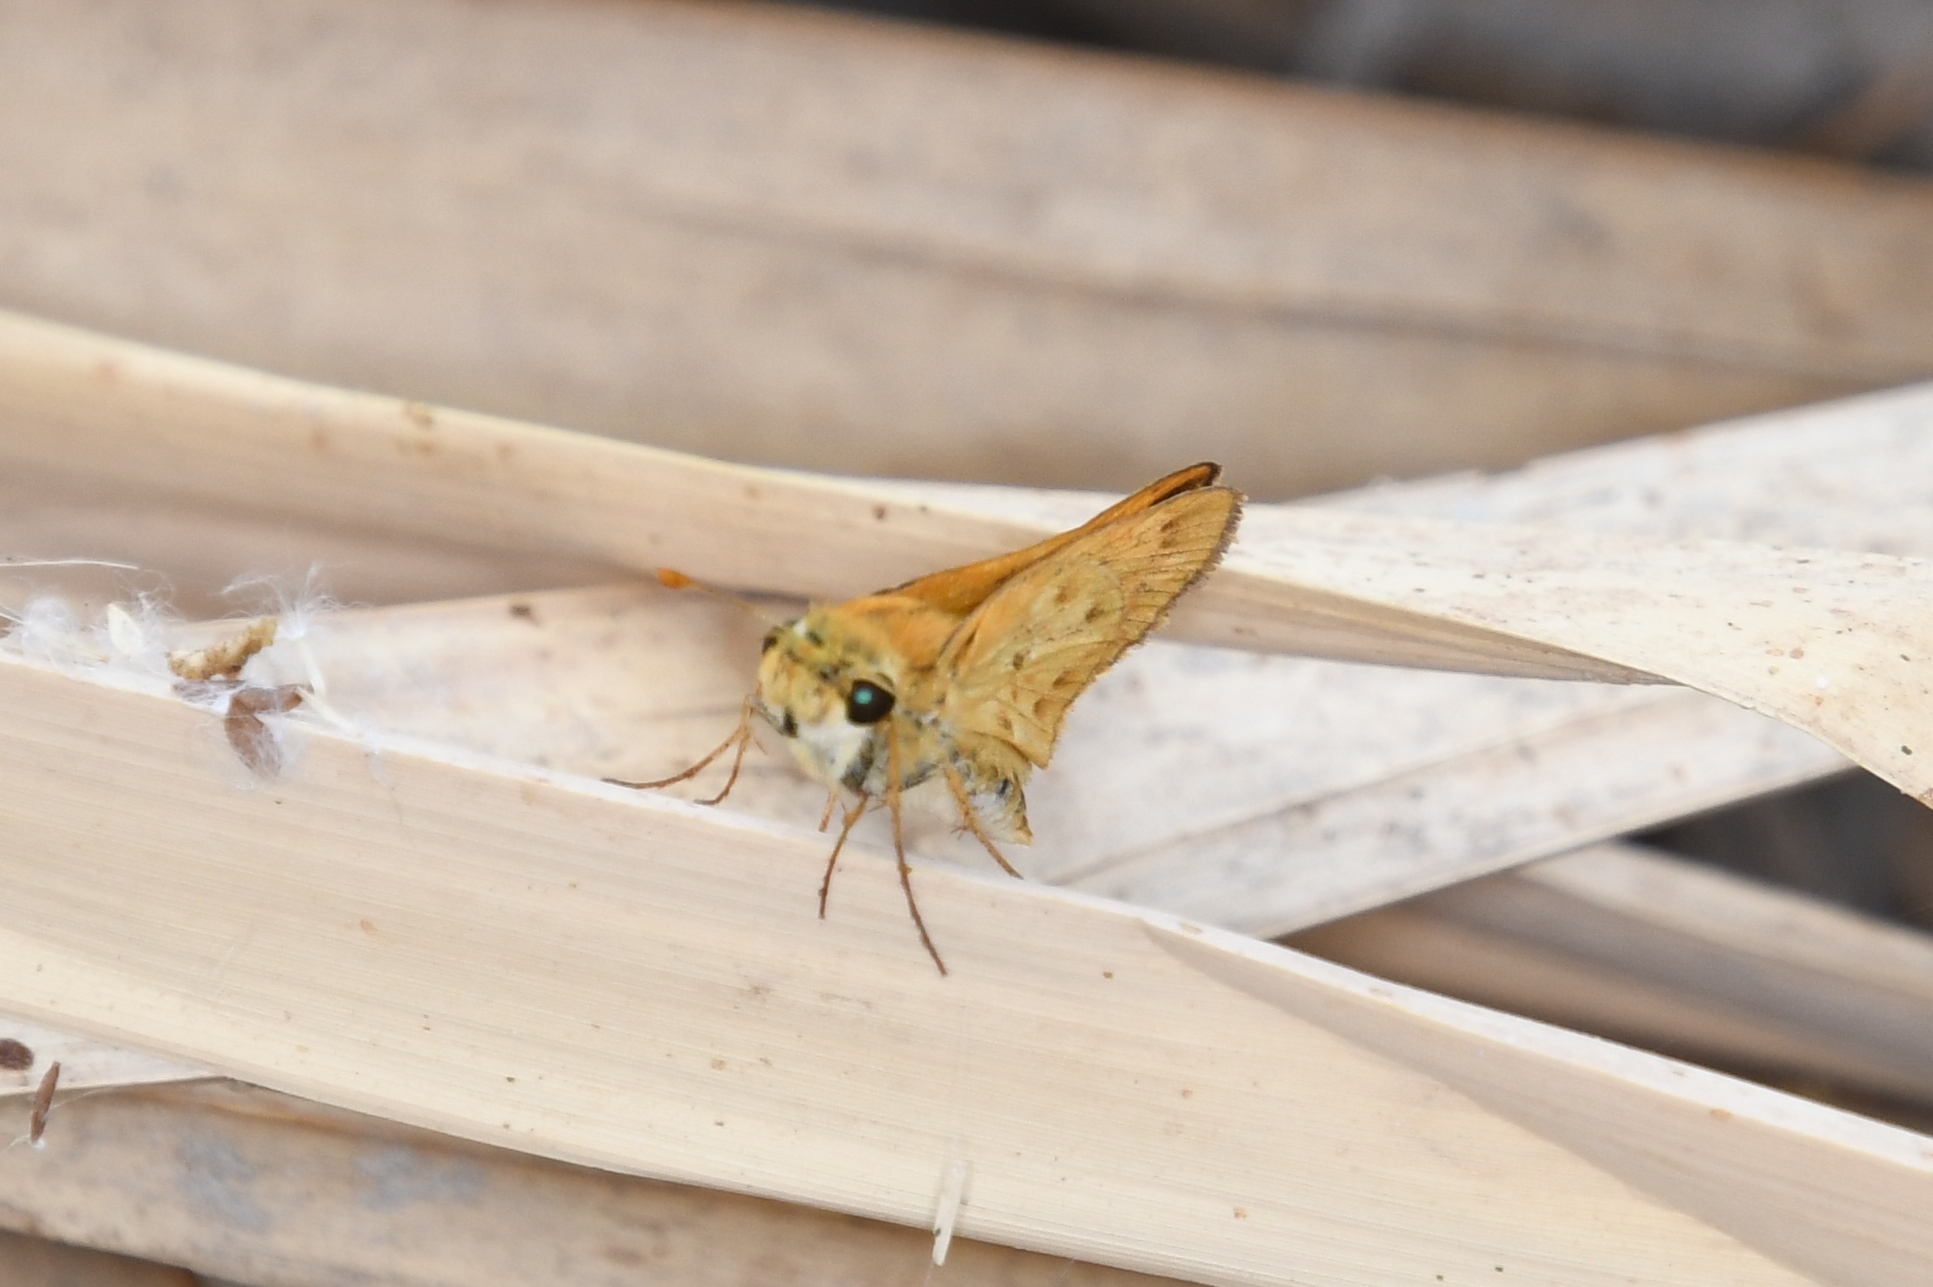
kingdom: Animalia
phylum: Arthropoda
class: Insecta
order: Lepidoptera
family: Hesperiidae
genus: Hylephila
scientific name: Hylephila phyleus
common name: Fiery skipper
